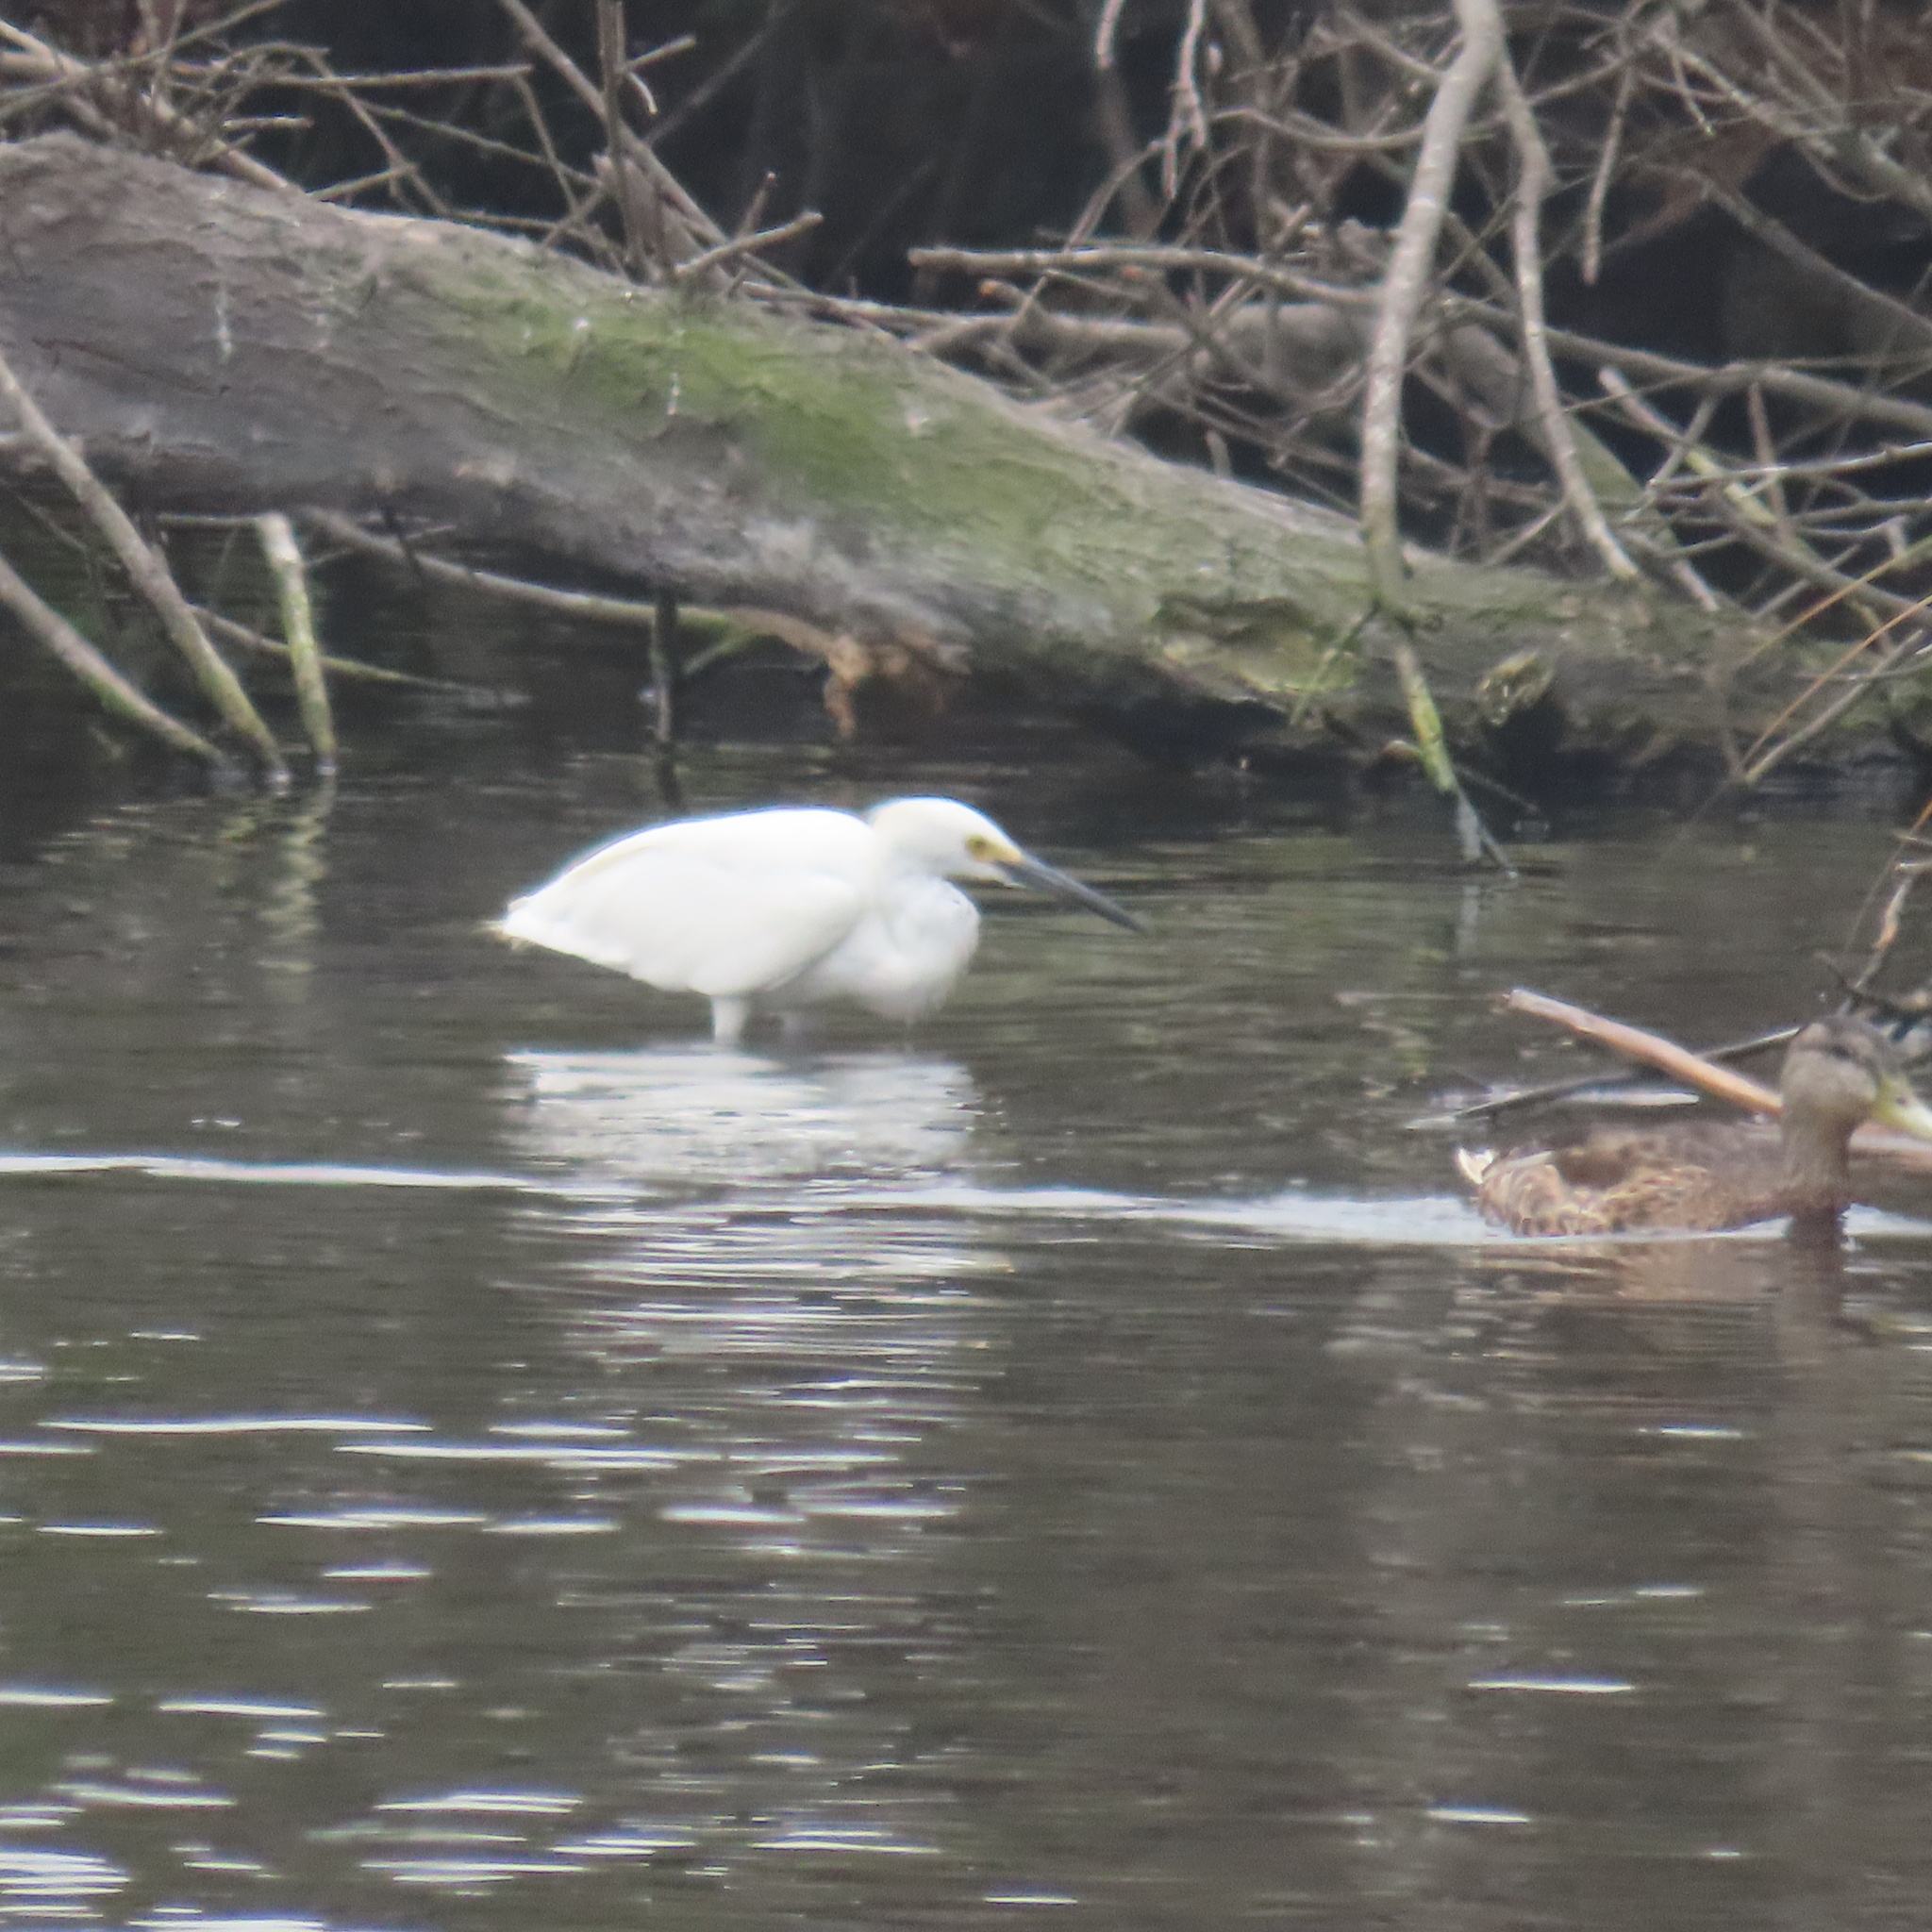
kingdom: Animalia
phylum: Chordata
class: Aves
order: Pelecaniformes
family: Ardeidae
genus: Egretta
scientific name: Egretta thula
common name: Snowy egret
